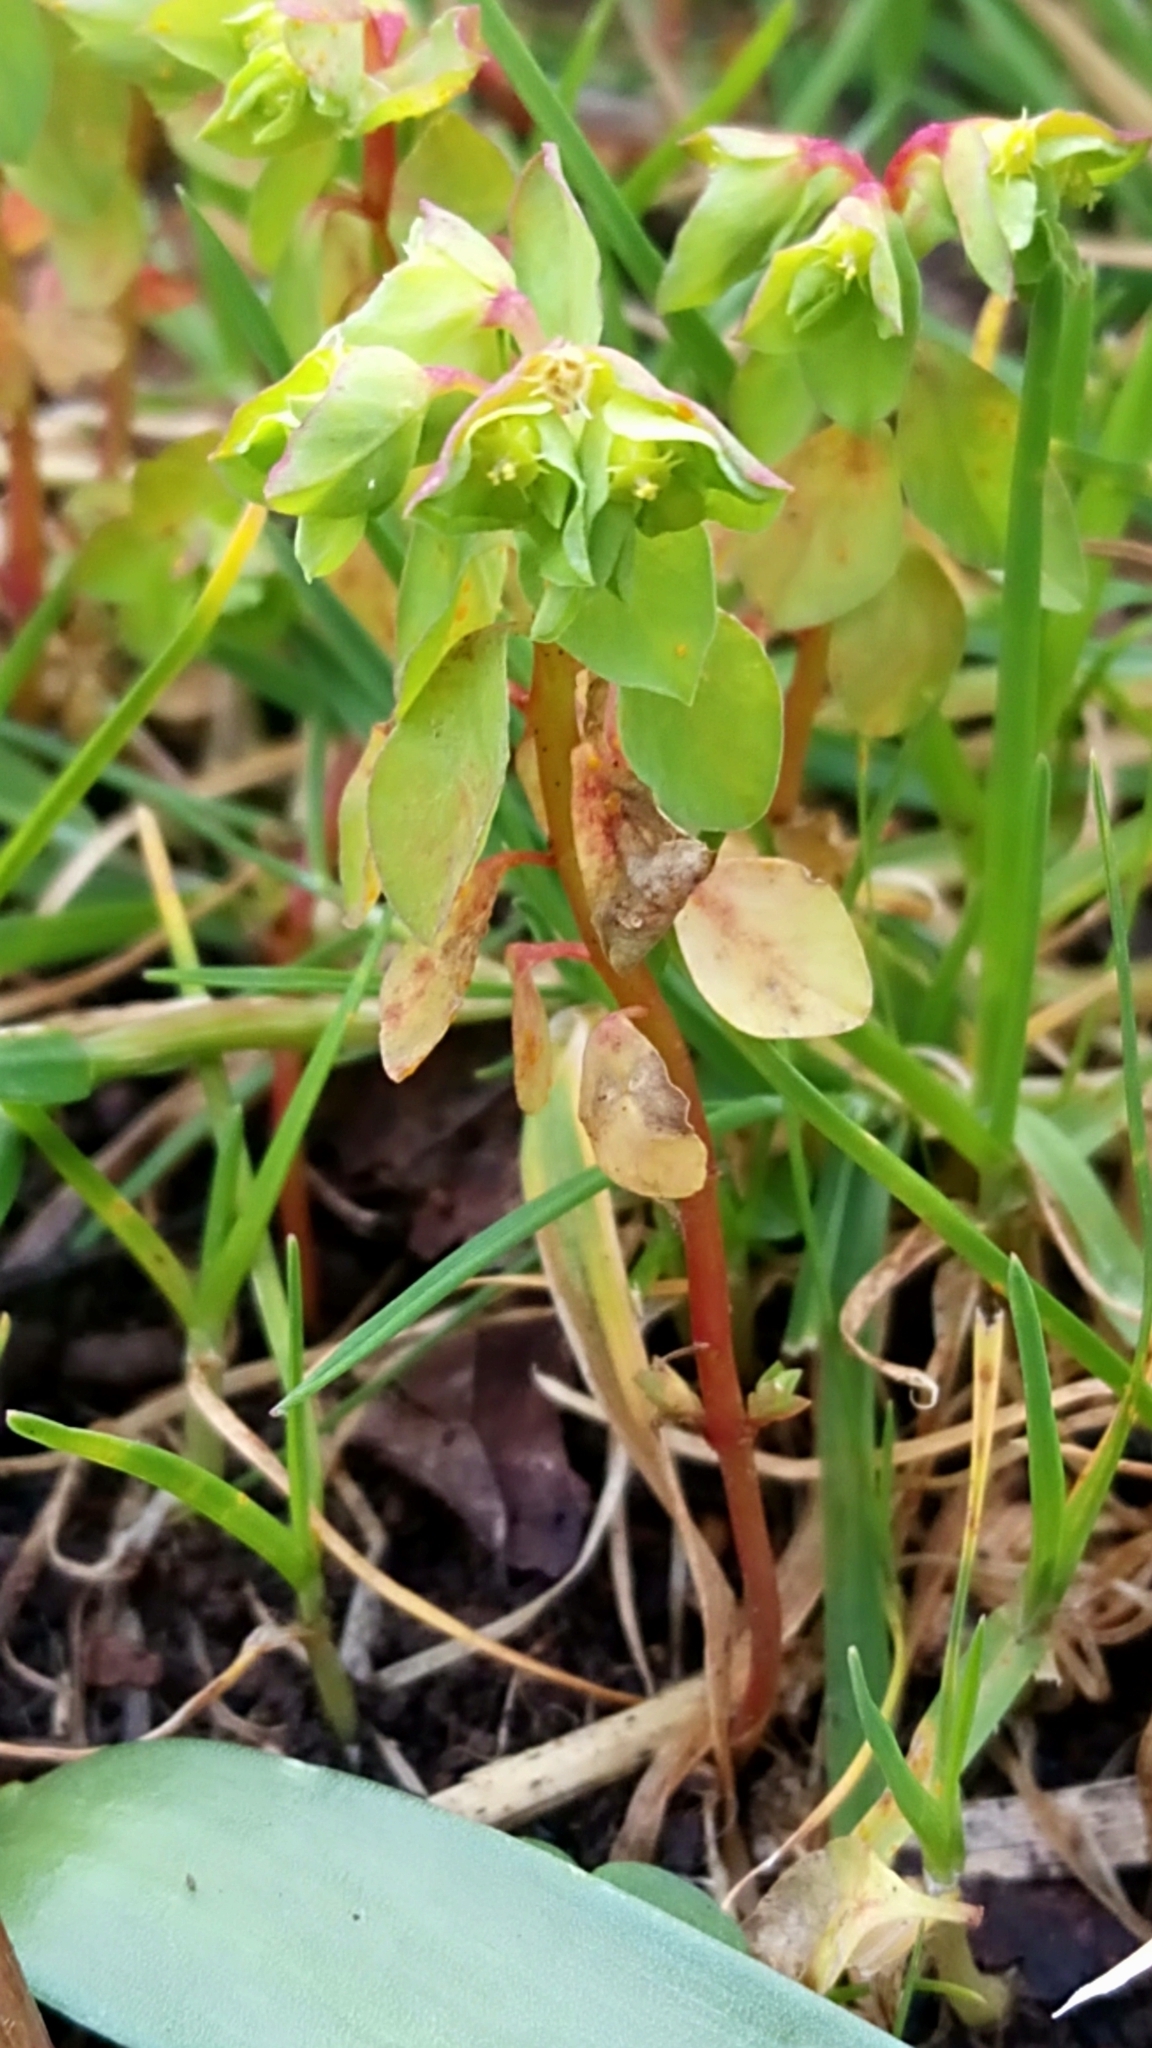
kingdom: Plantae
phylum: Tracheophyta
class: Magnoliopsida
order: Malpighiales
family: Euphorbiaceae
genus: Euphorbia
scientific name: Euphorbia peplus
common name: Petty spurge
